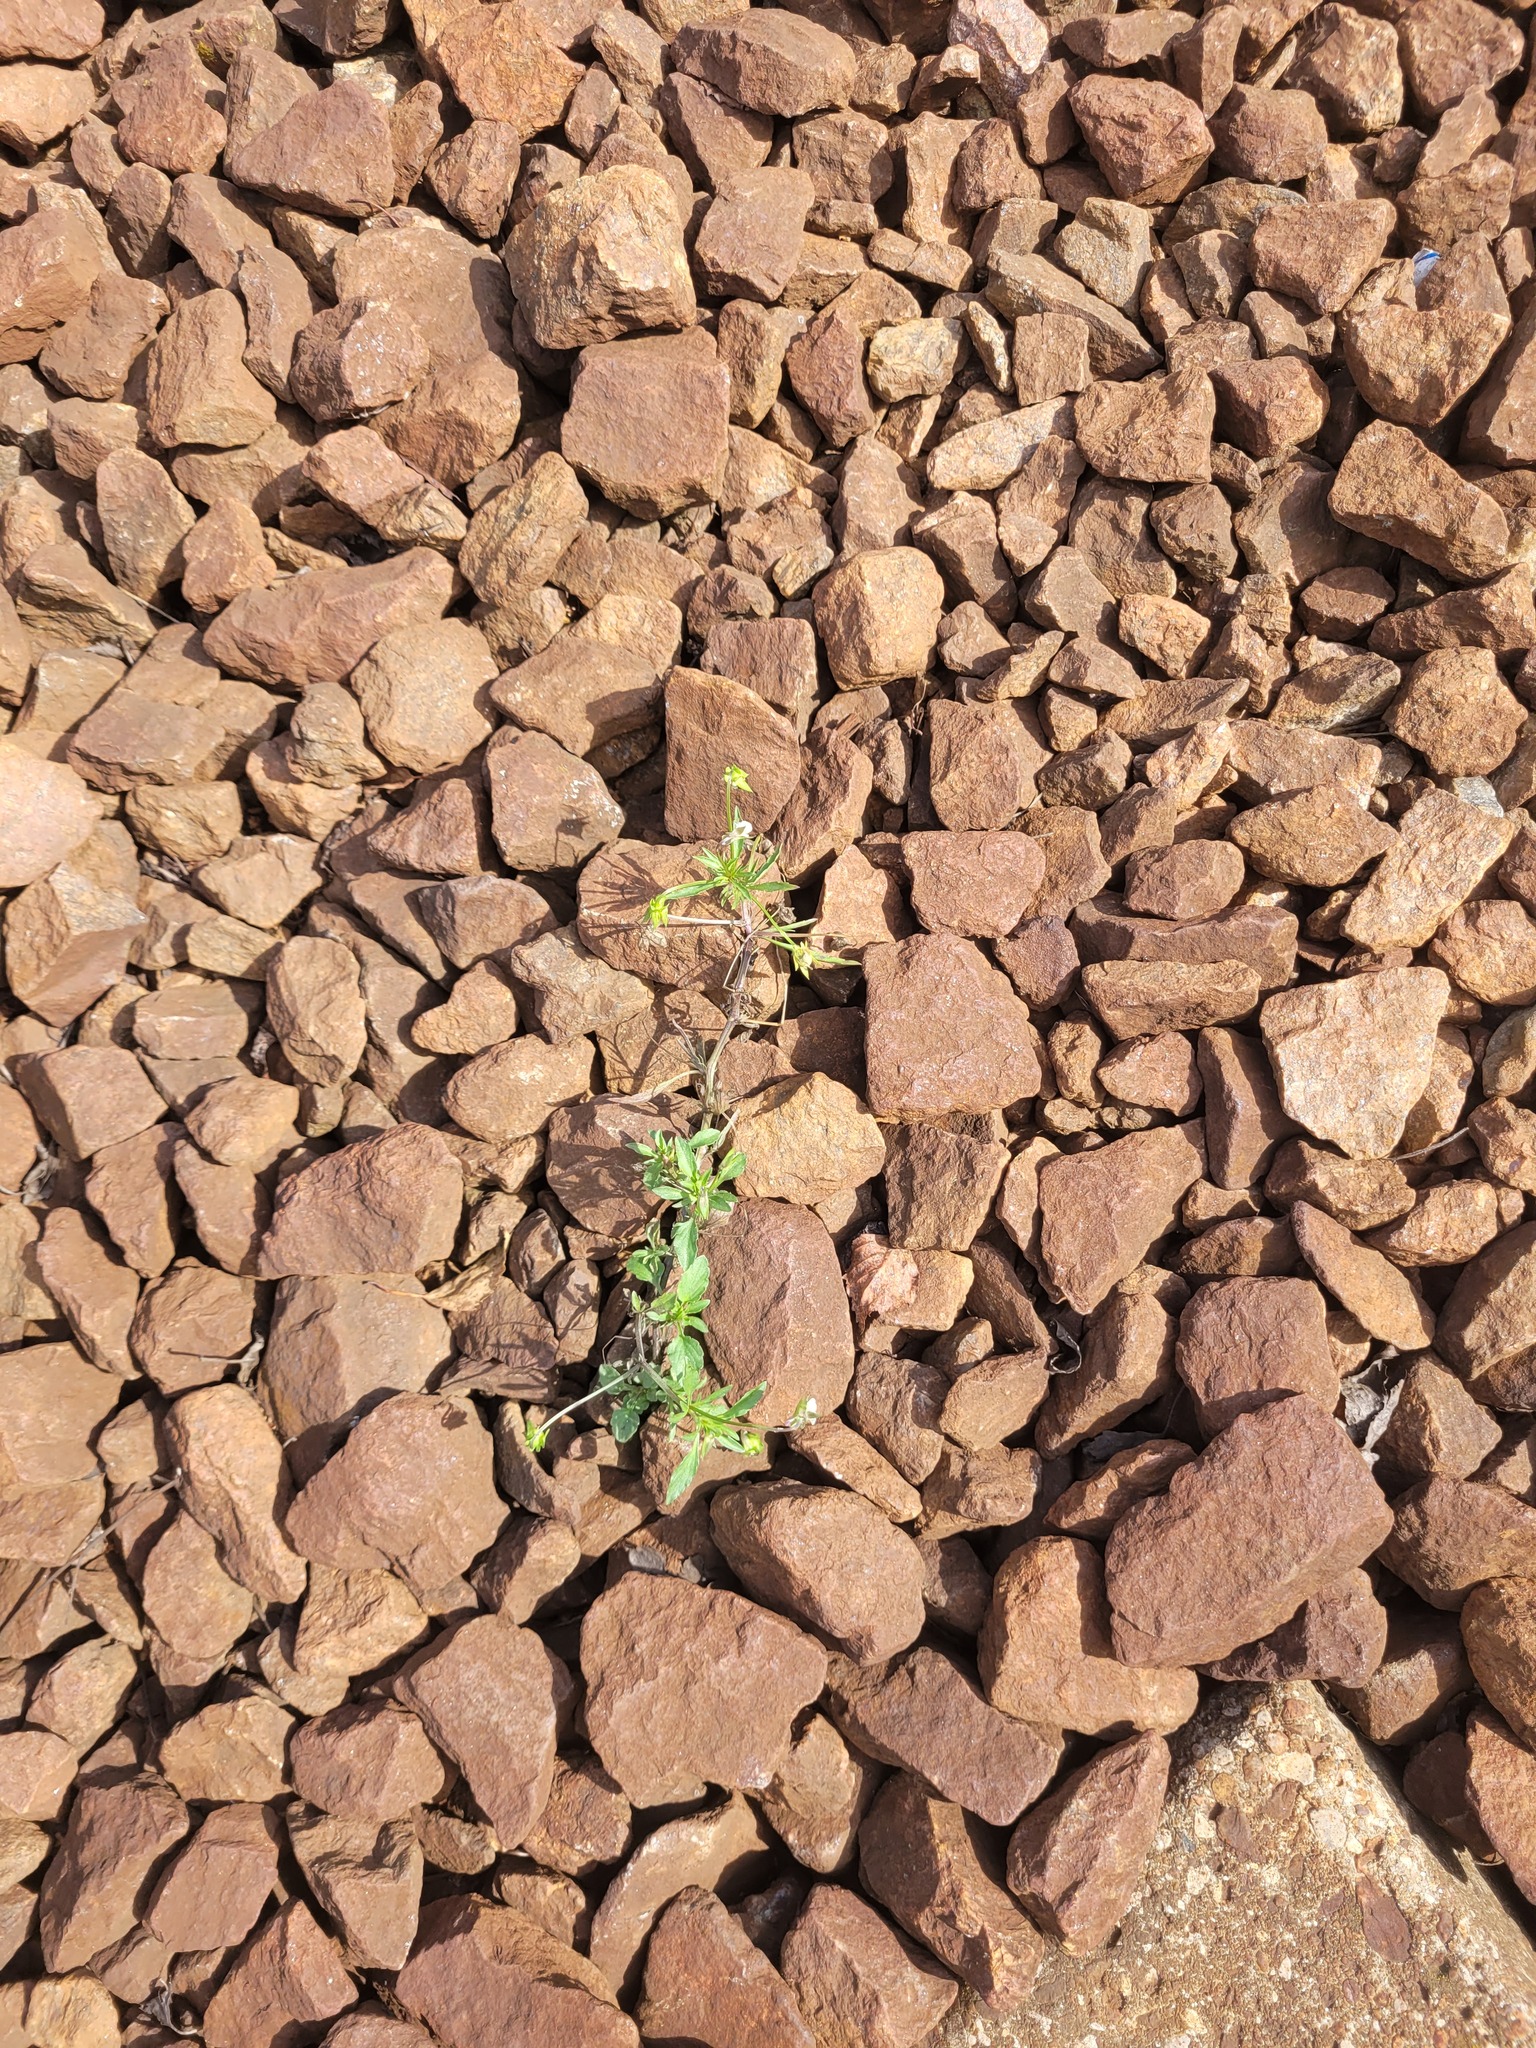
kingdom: Plantae
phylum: Tracheophyta
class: Magnoliopsida
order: Malpighiales
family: Violaceae
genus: Viola
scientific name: Viola arvensis
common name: Field pansy
